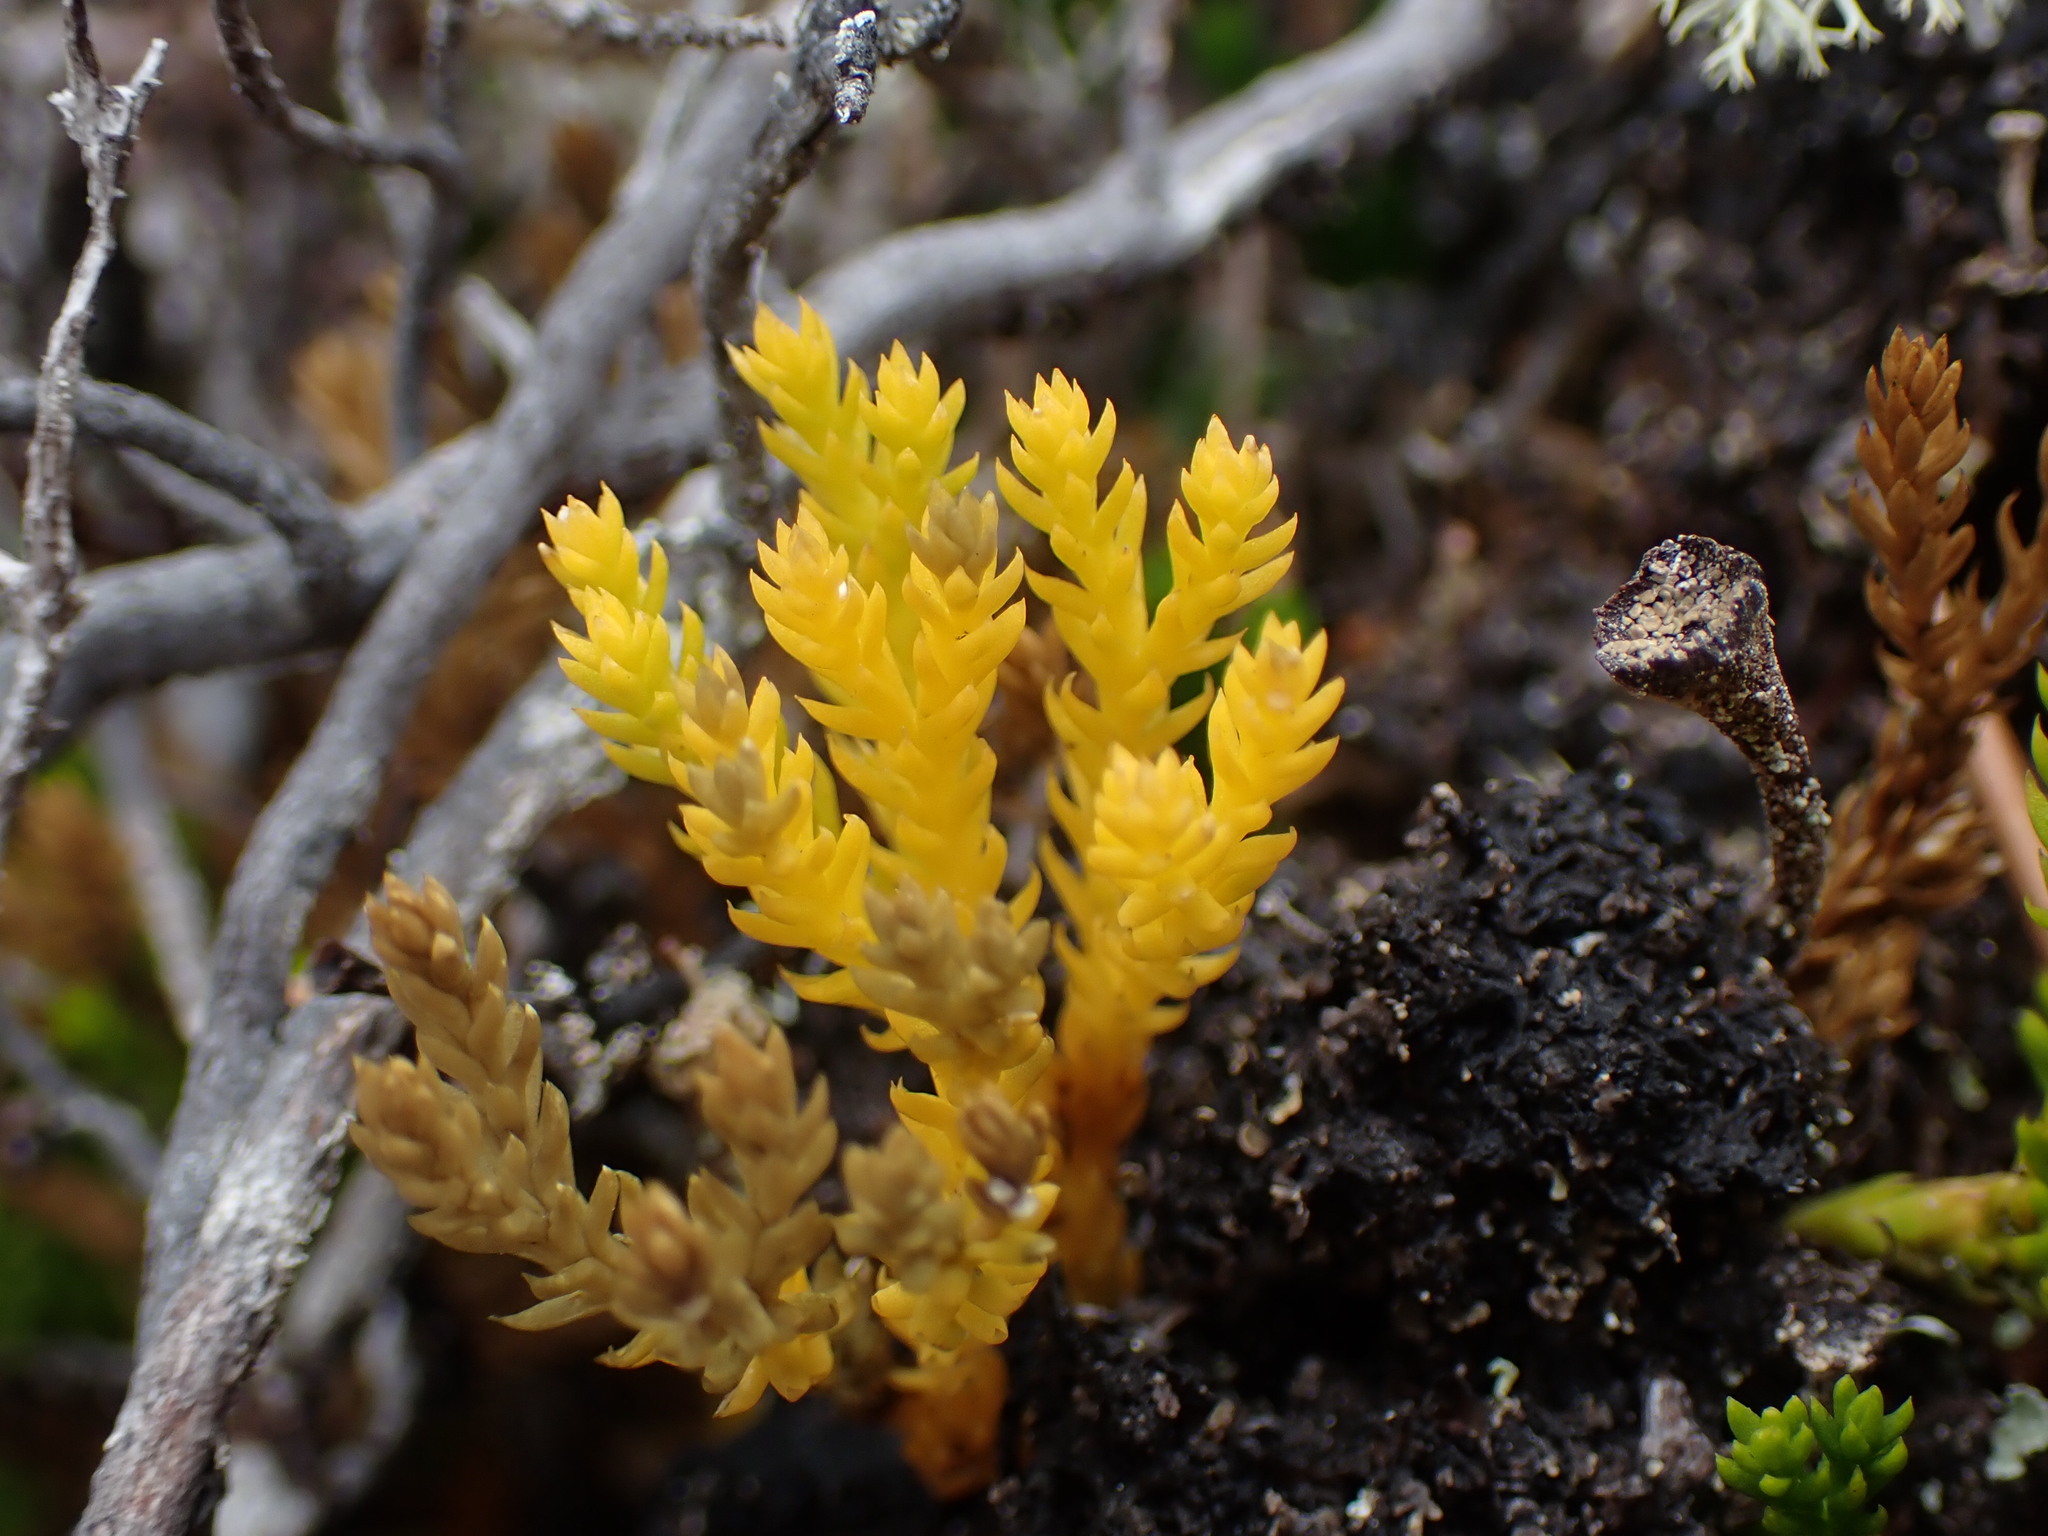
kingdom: Plantae
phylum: Tracheophyta
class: Lycopodiopsida
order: Lycopodiales
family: Lycopodiaceae
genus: Diphasiastrum
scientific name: Diphasiastrum sitchense
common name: Alaska clubmoss
